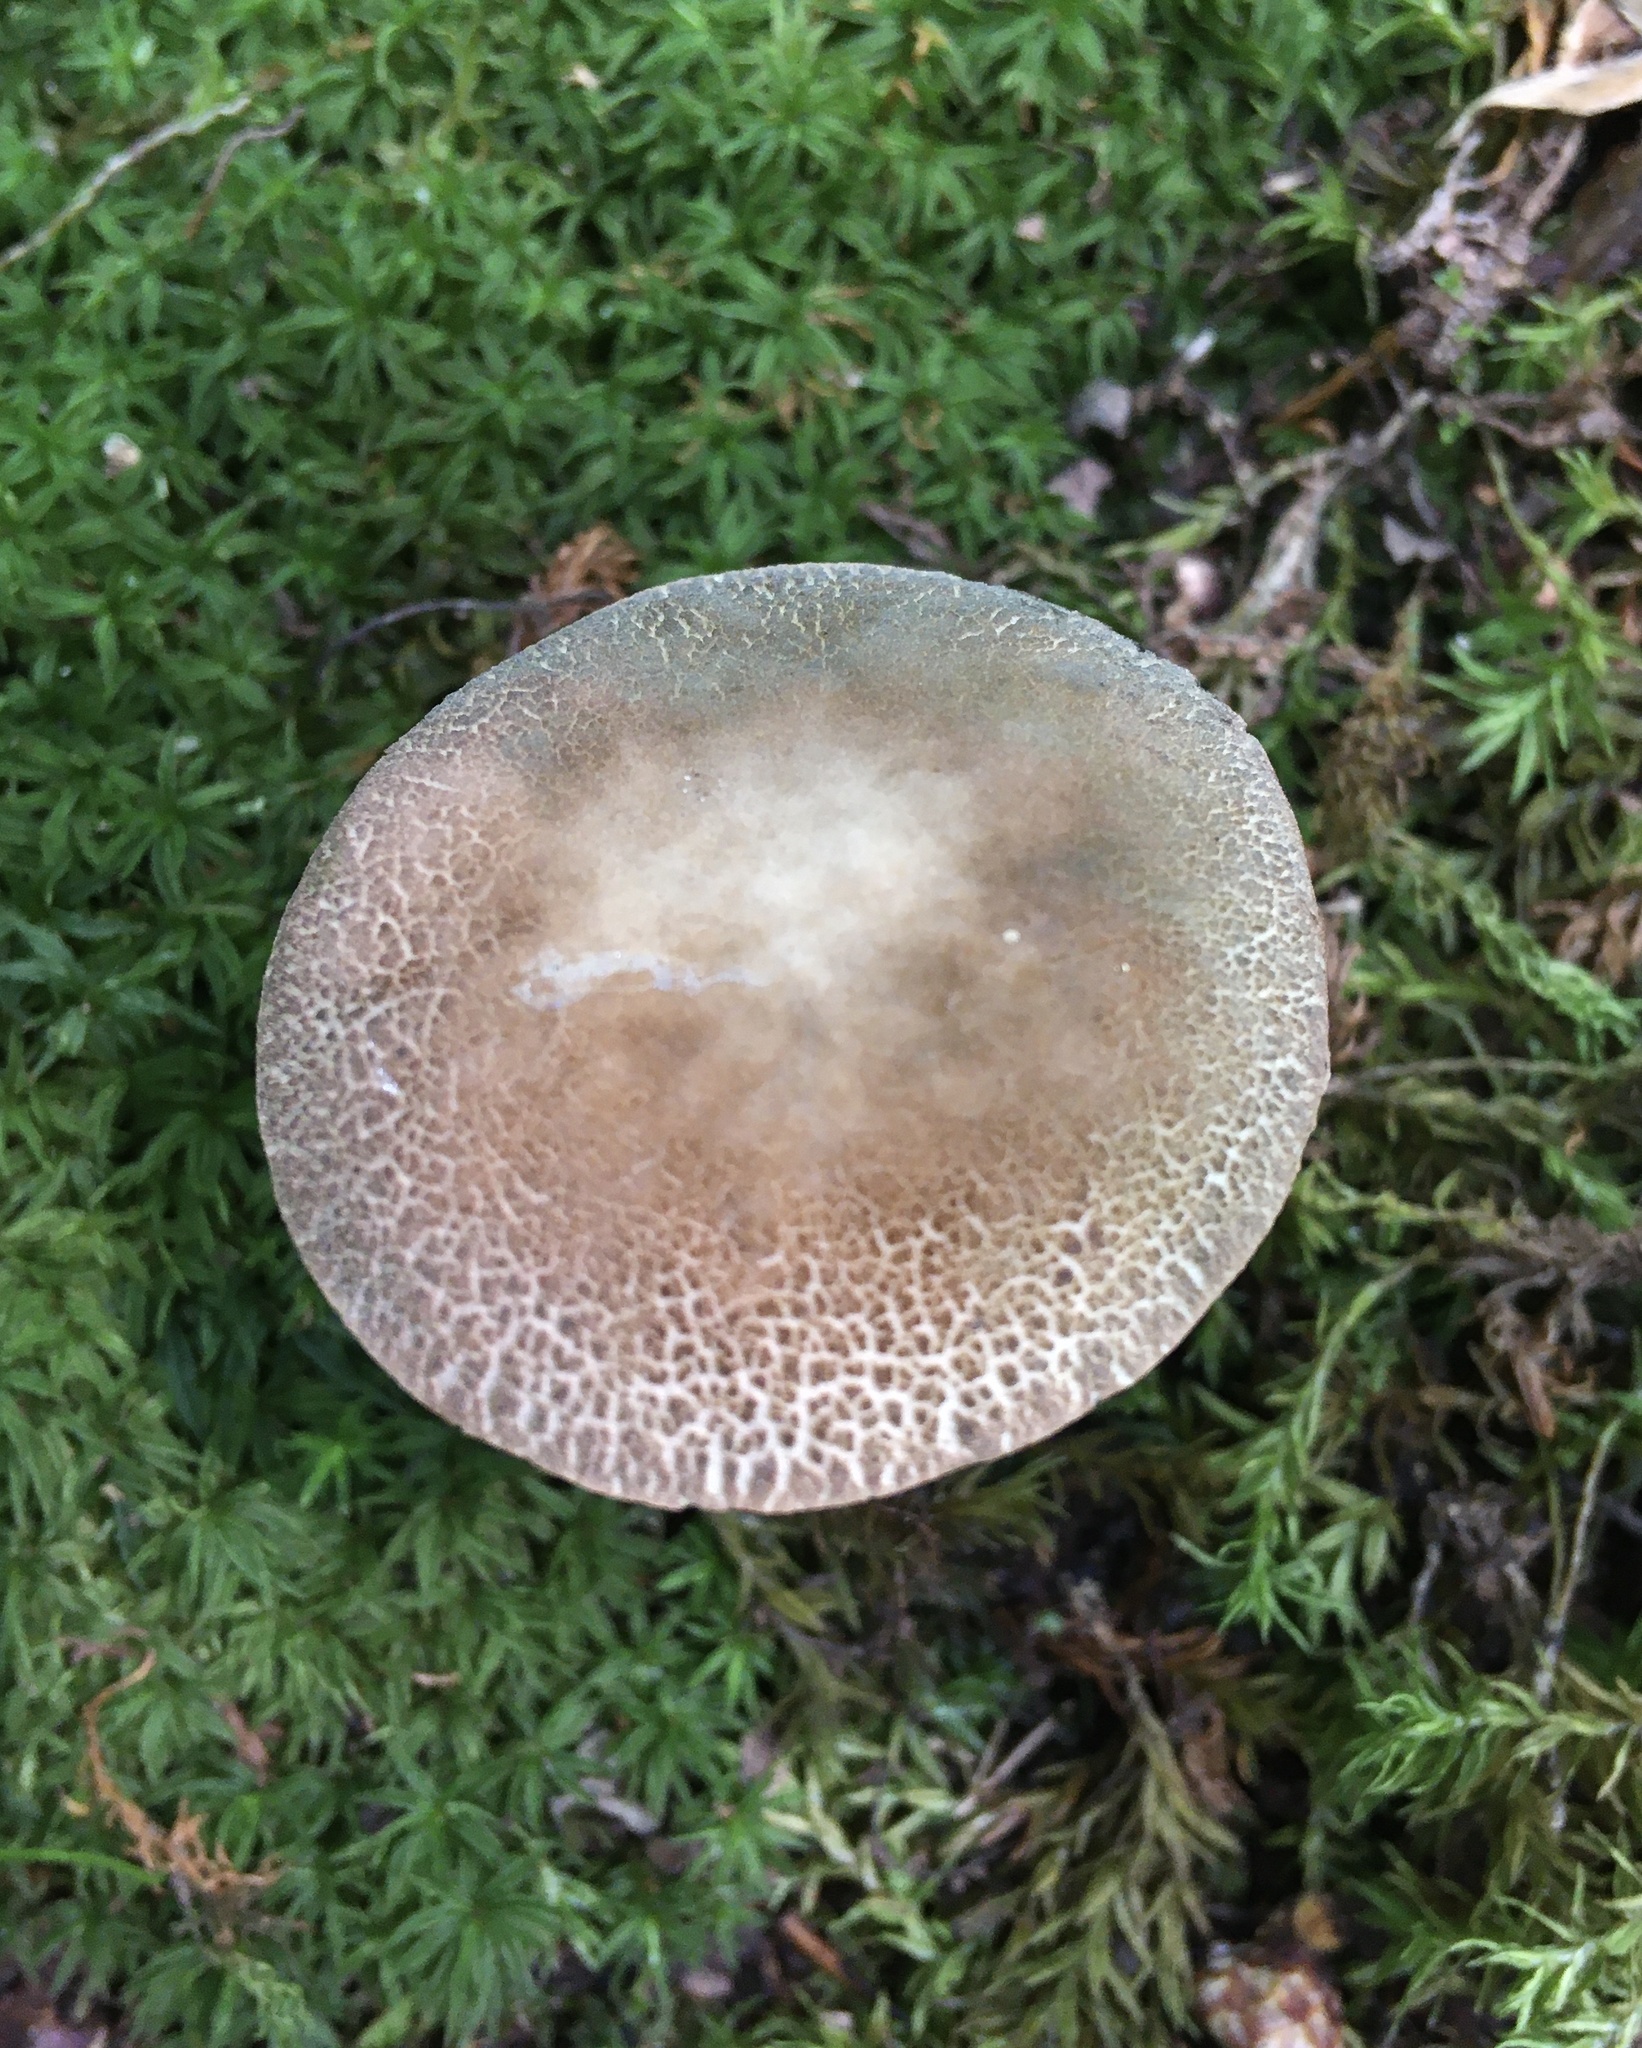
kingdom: Fungi
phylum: Basidiomycota
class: Agaricomycetes
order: Boletales
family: Boletaceae
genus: Porphyrellus
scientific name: Porphyrellus sordidus
